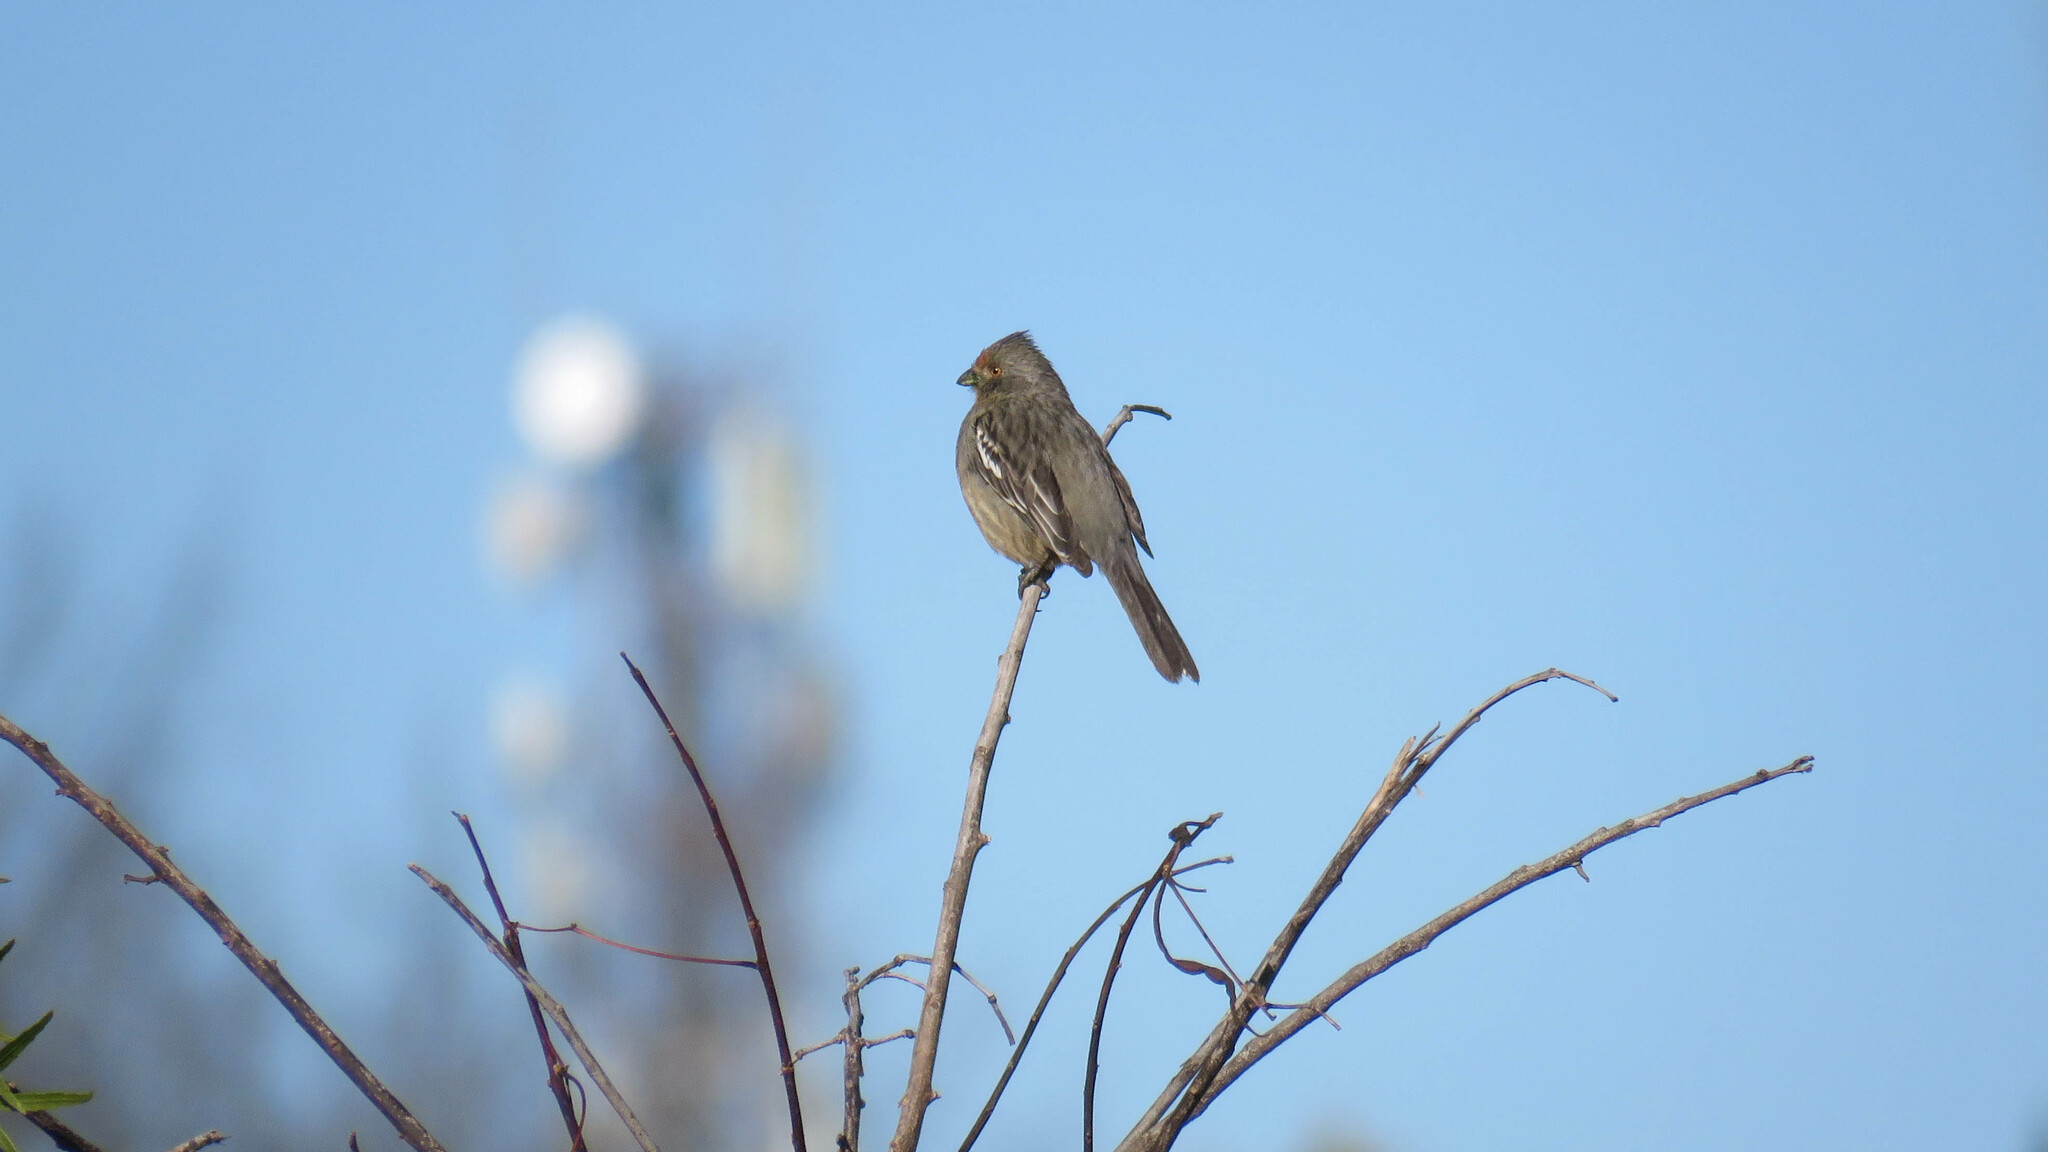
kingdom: Animalia
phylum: Chordata
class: Aves
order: Passeriformes
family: Cotingidae
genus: Phytotoma
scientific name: Phytotoma rutila
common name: White-tipped plantcutter
